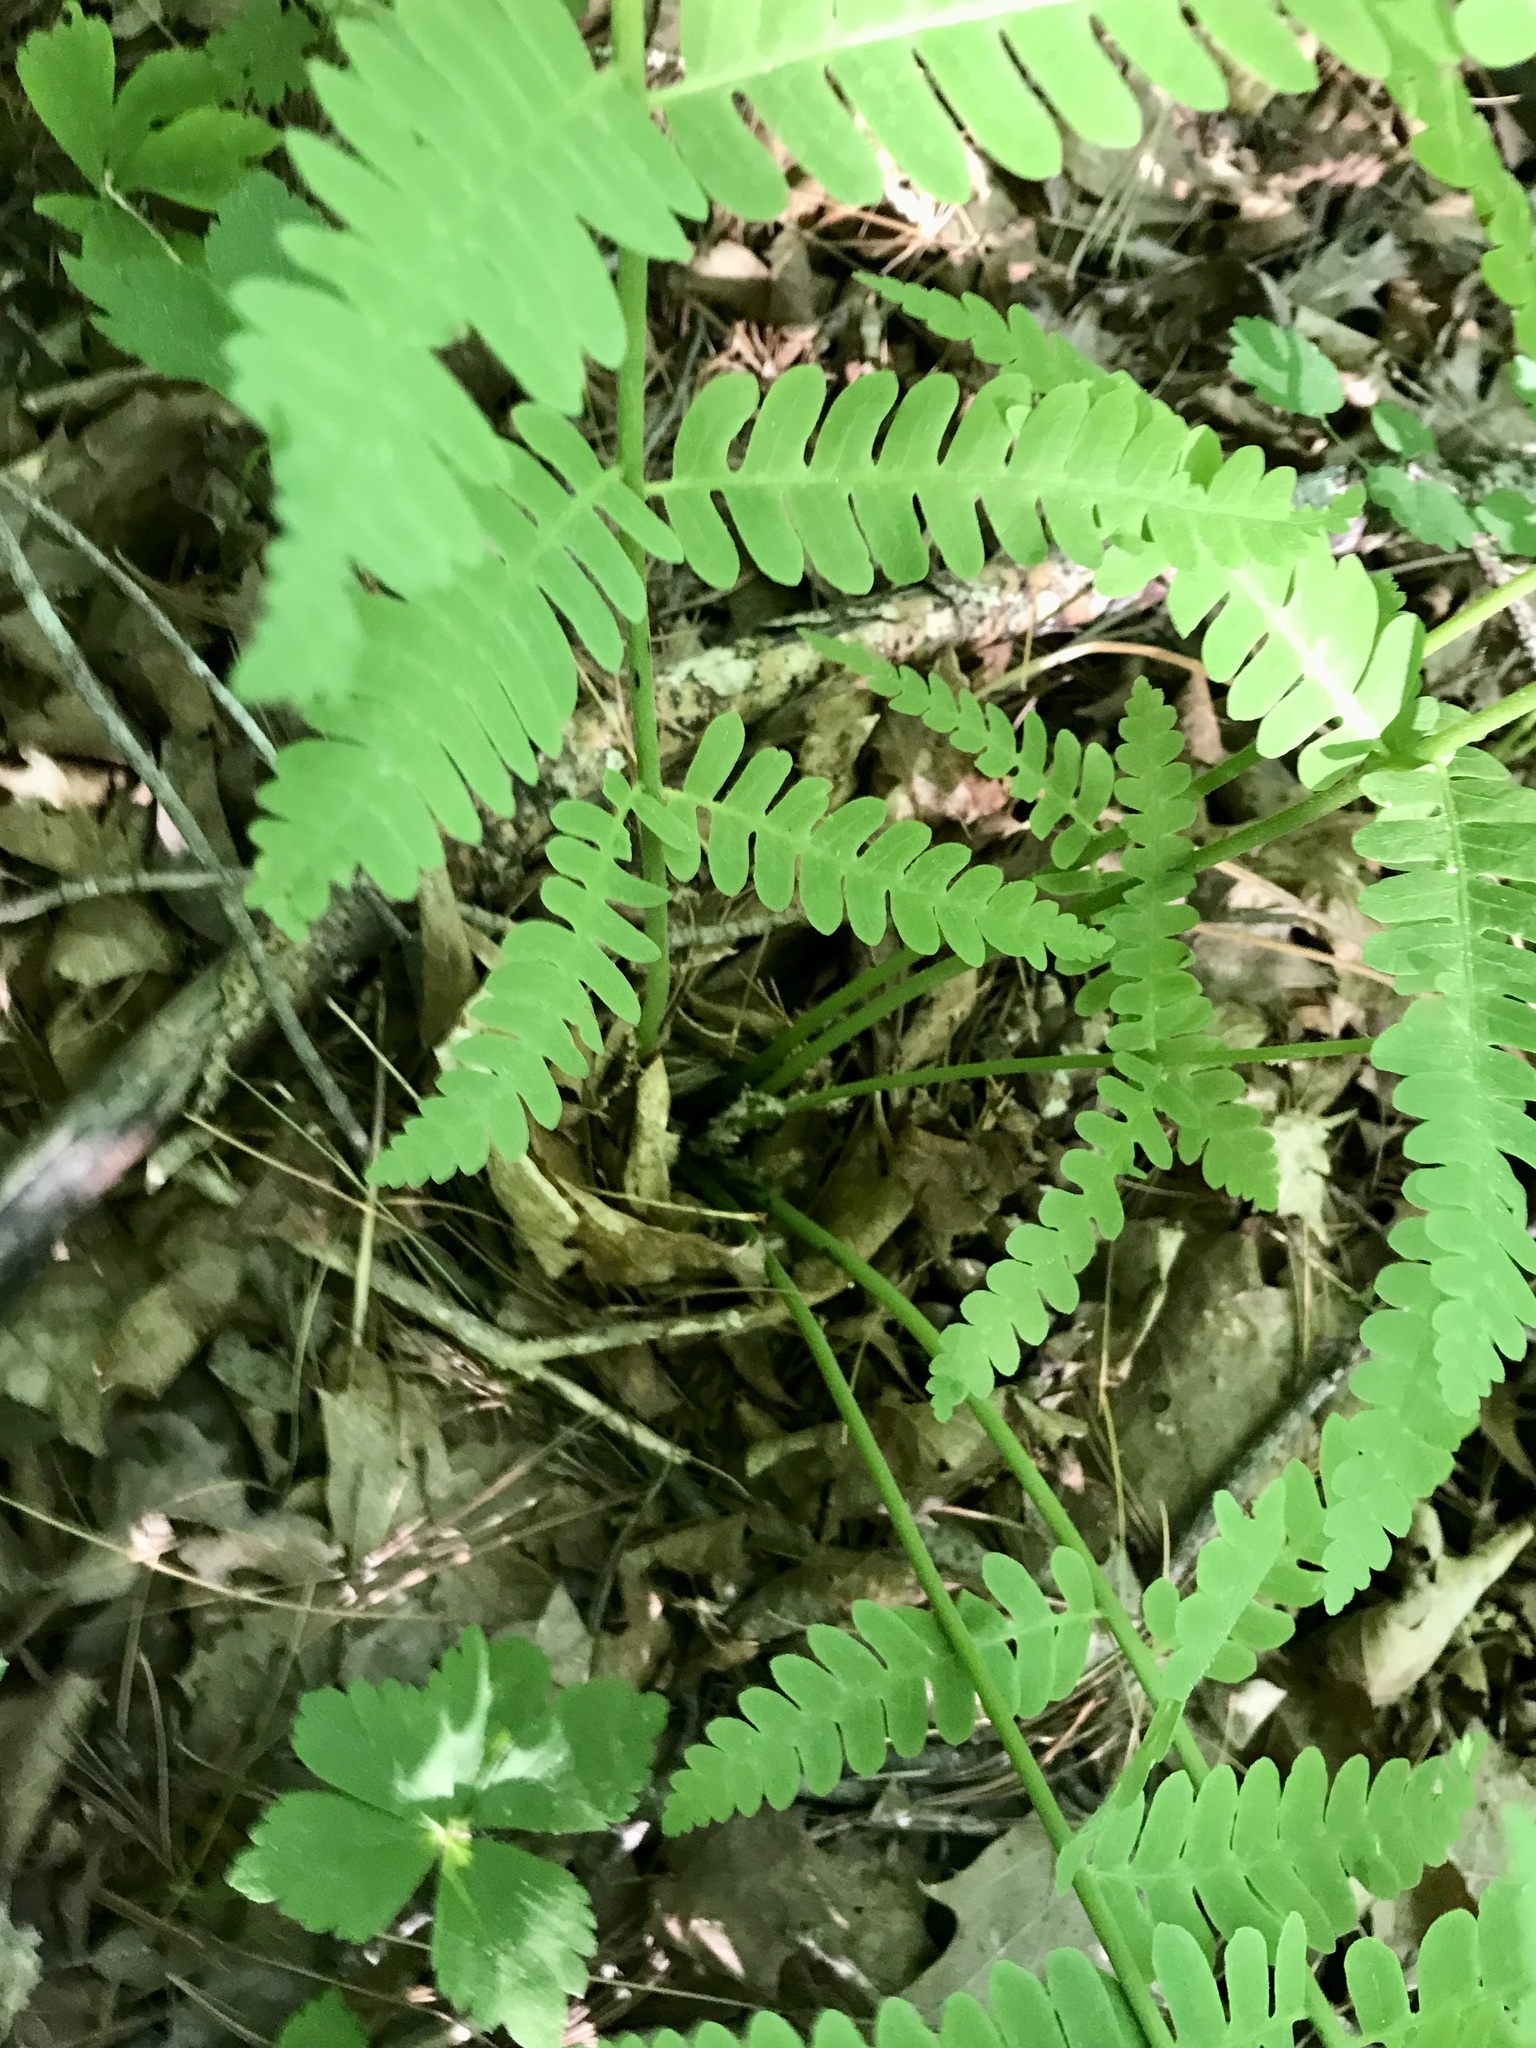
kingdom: Plantae
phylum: Tracheophyta
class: Polypodiopsida
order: Osmundales
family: Osmundaceae
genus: Claytosmunda
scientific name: Claytosmunda claytoniana
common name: Clayton's fern
